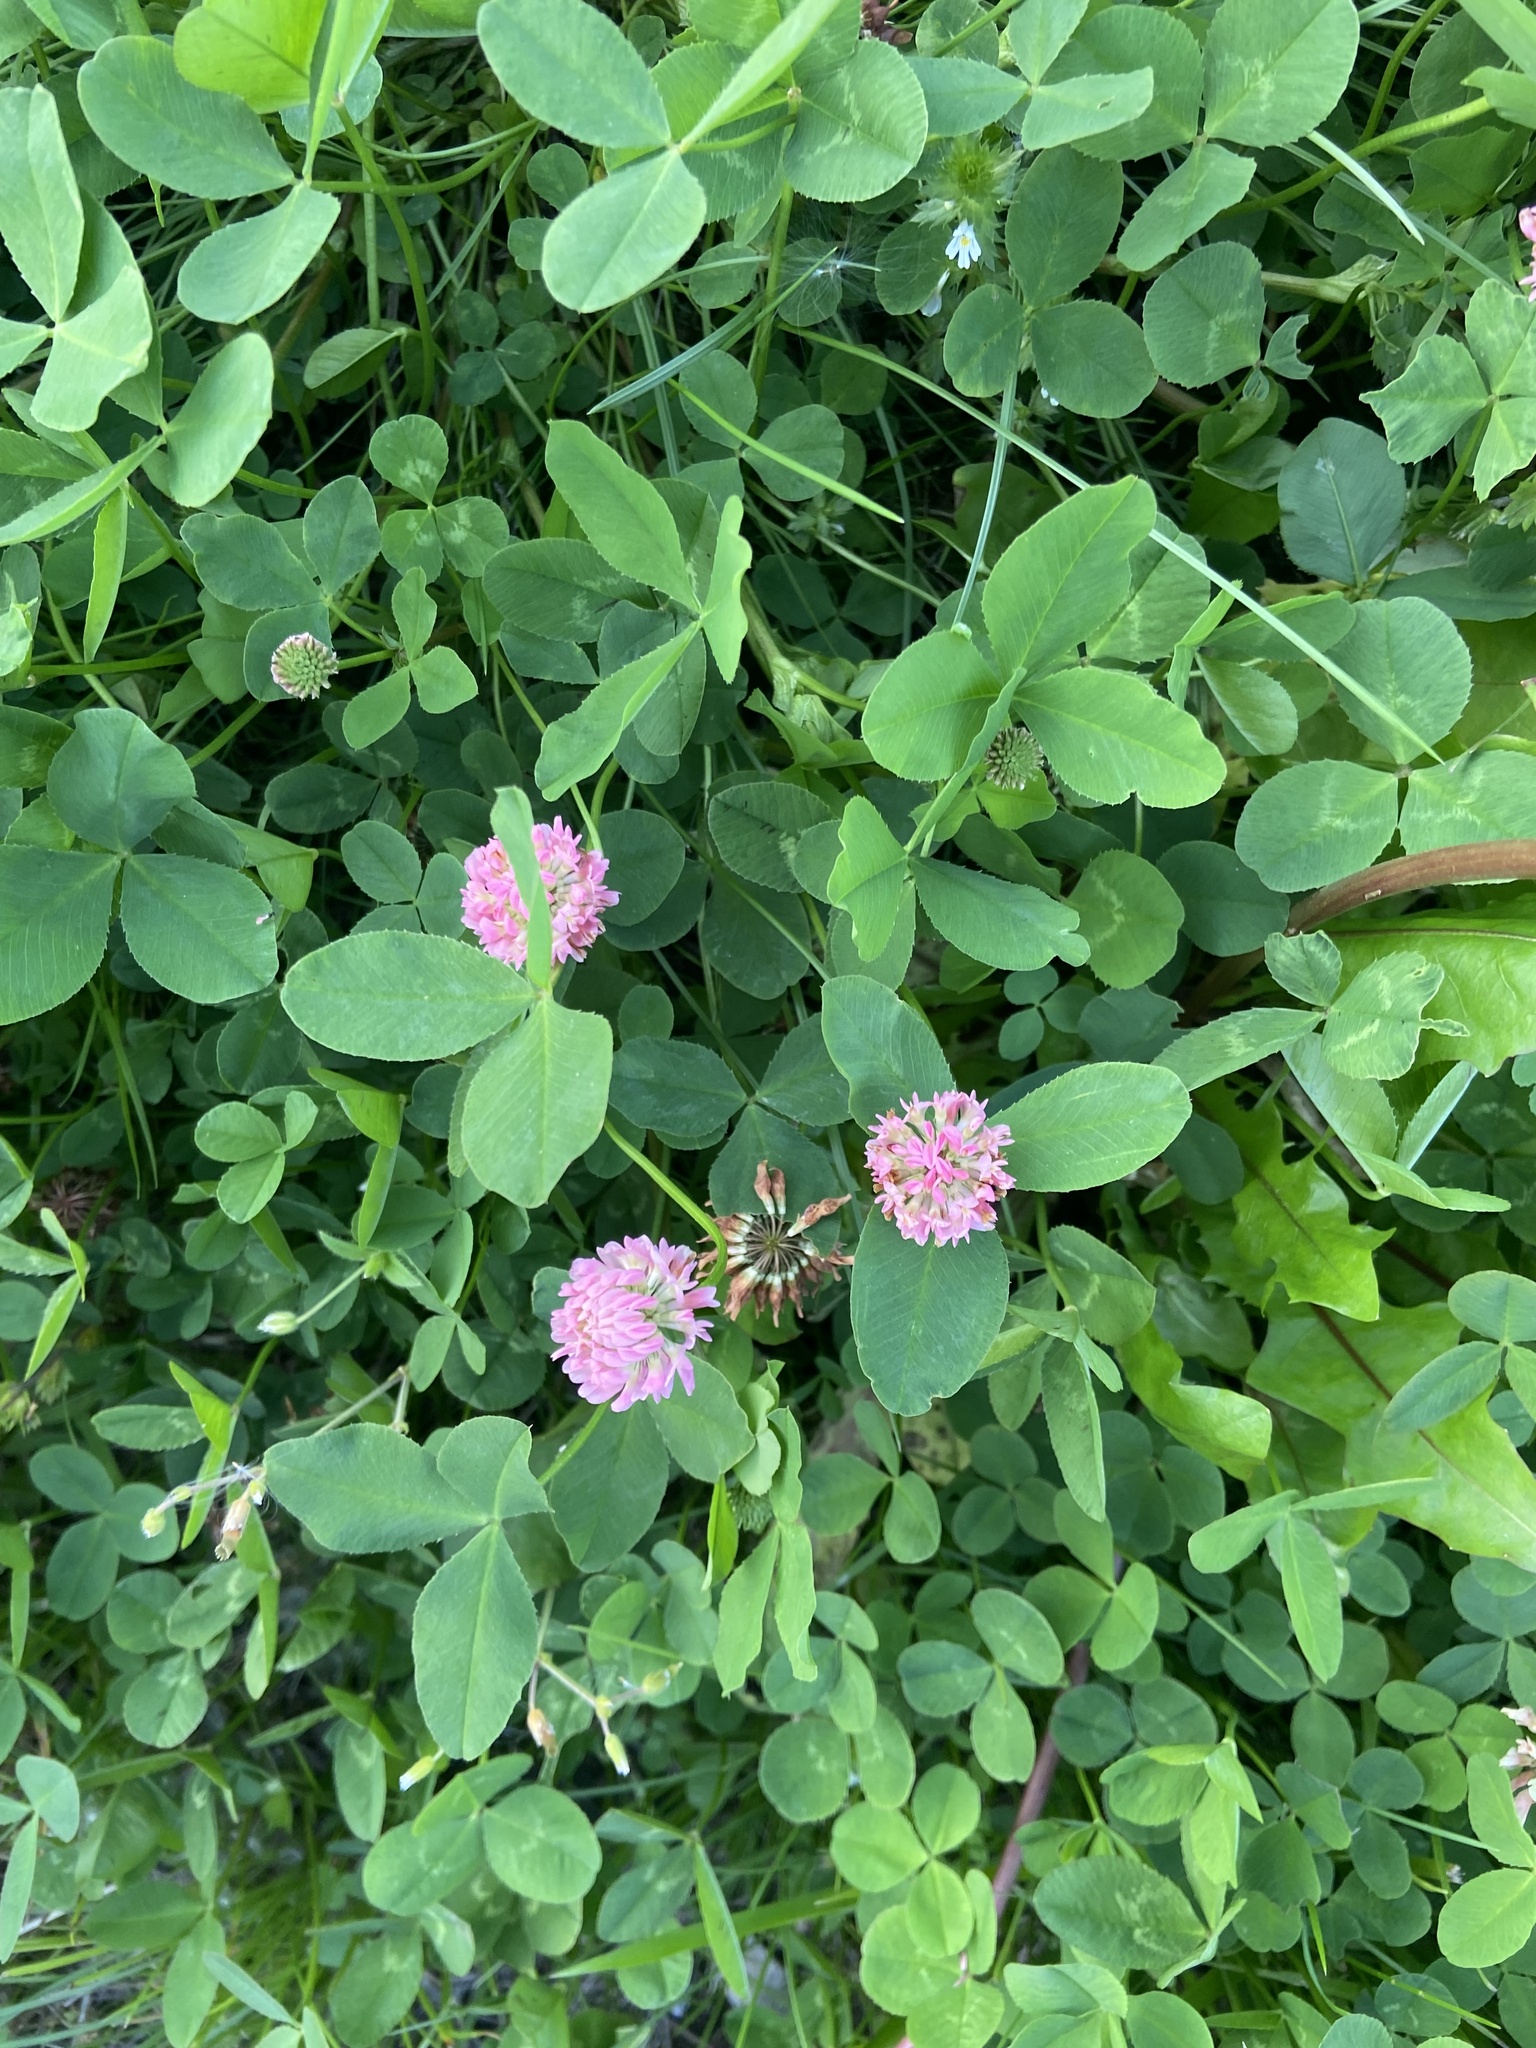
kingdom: Plantae
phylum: Tracheophyta
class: Magnoliopsida
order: Fabales
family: Fabaceae
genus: Trifolium
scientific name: Trifolium hybridum
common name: Alsike clover
